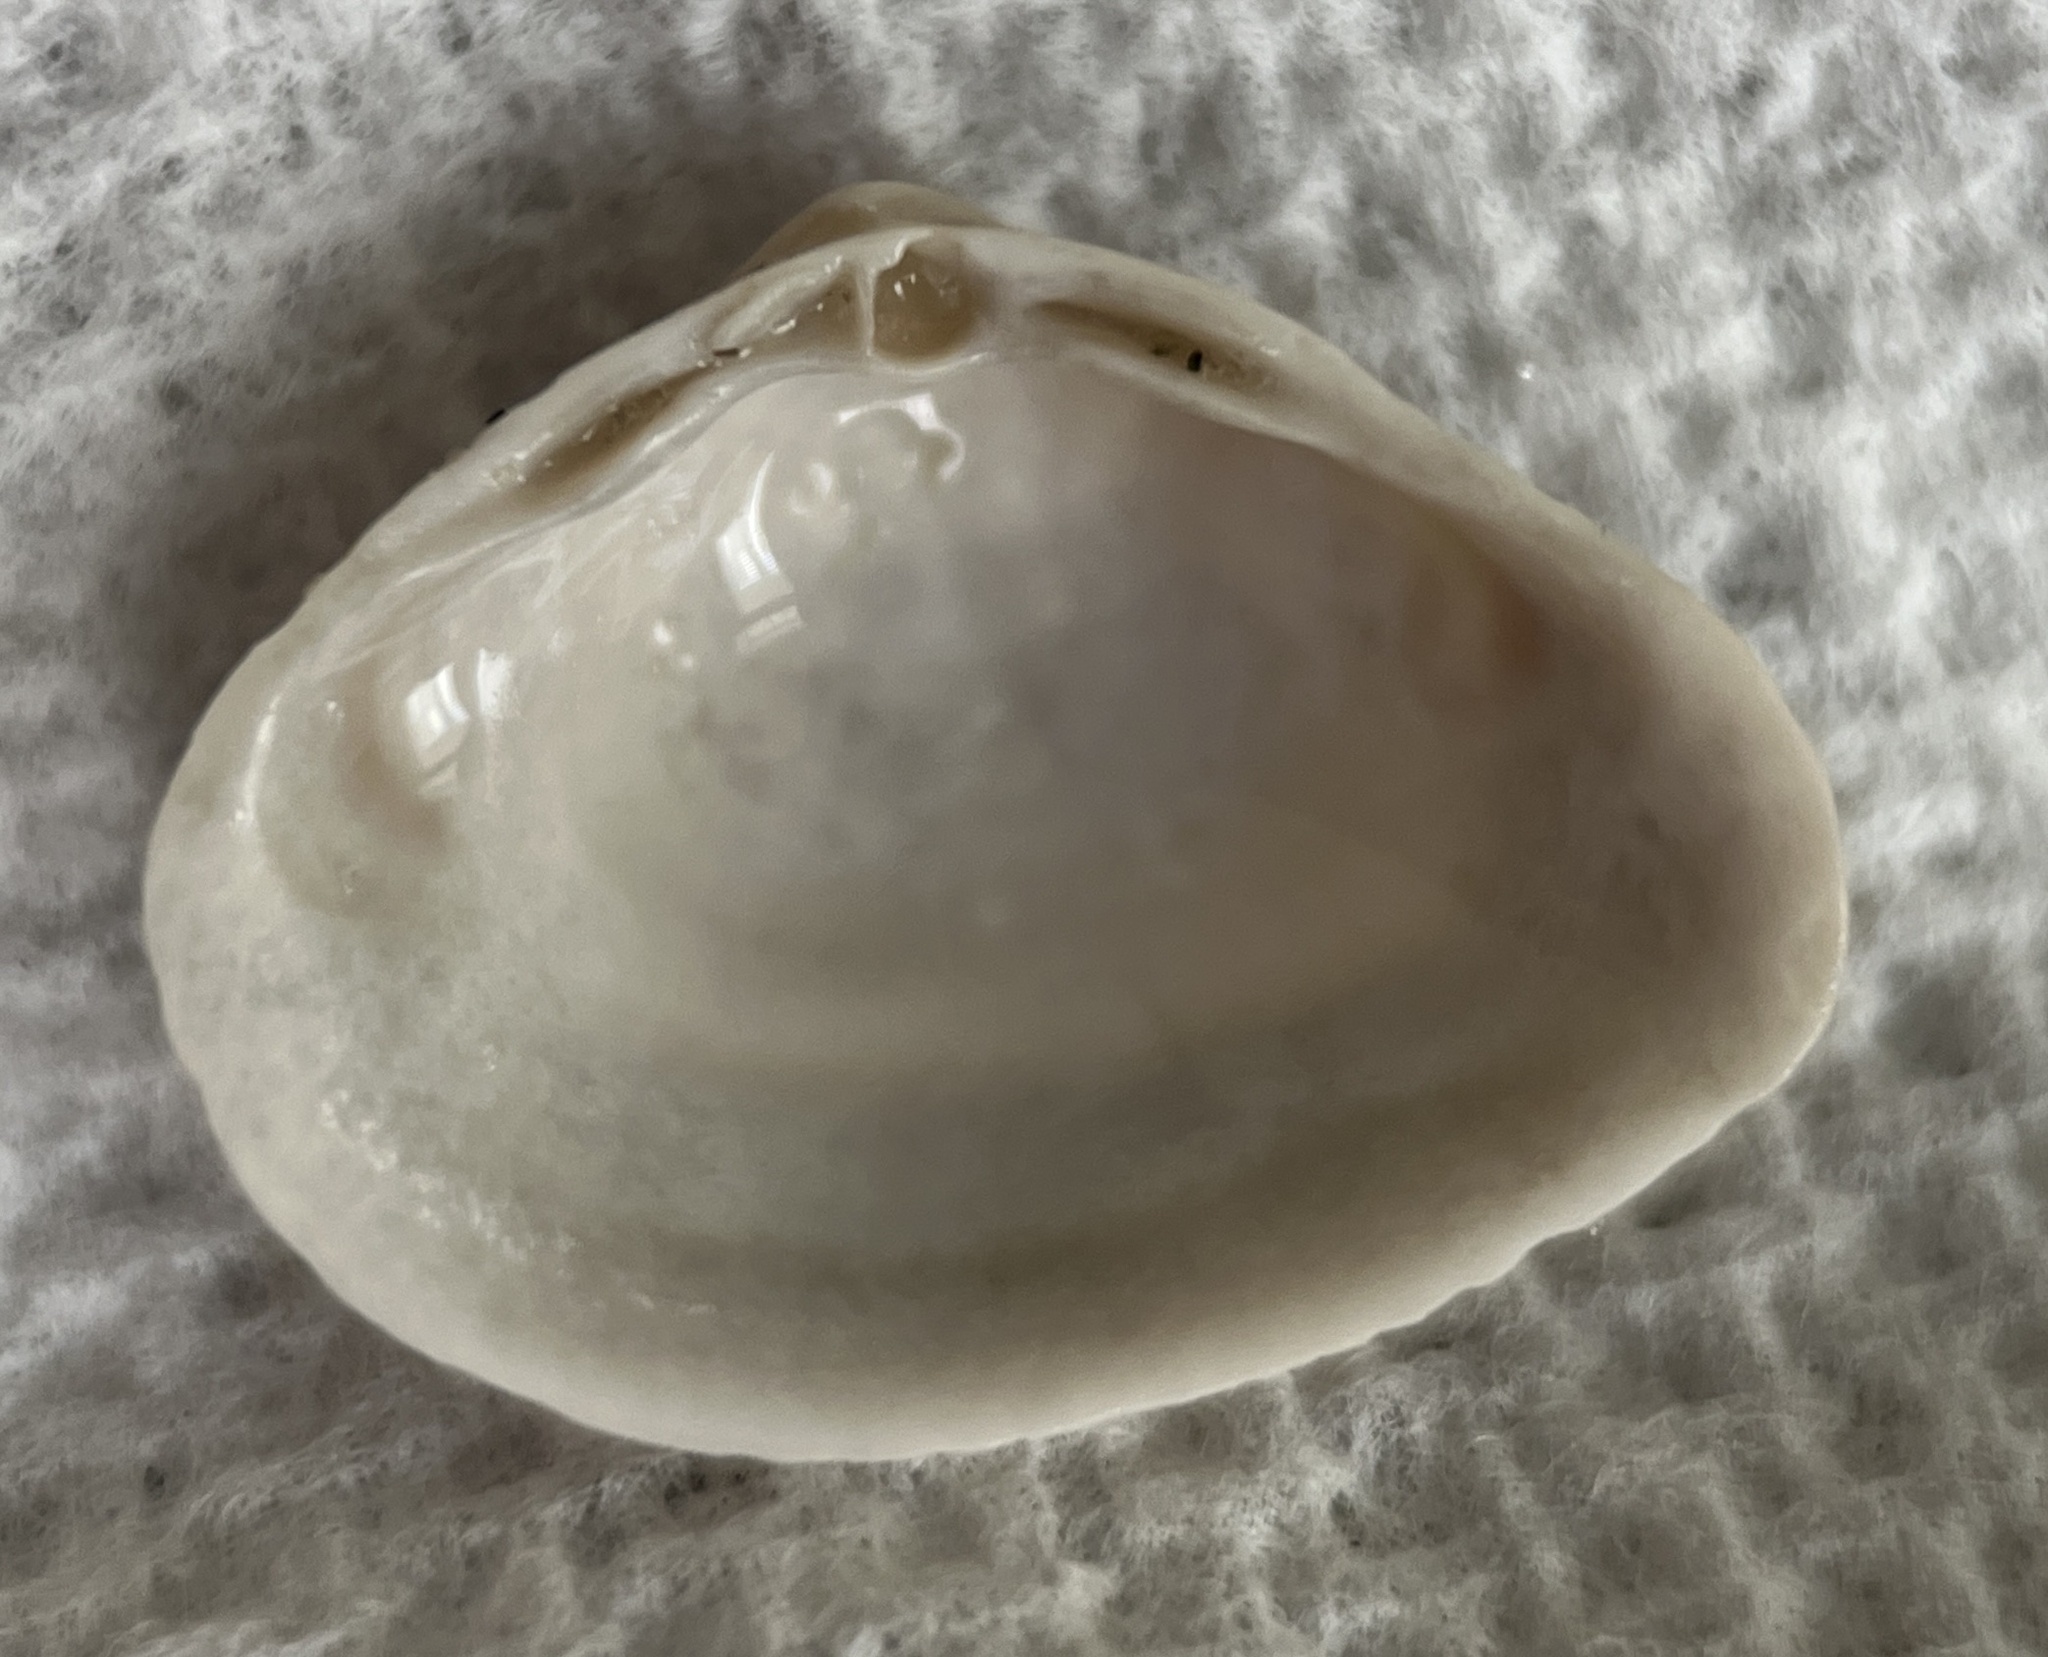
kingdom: Animalia
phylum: Mollusca
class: Bivalvia
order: Venerida
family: Mactridae
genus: Mulinia
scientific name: Mulinia lateralis
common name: Dwarf surfclam
